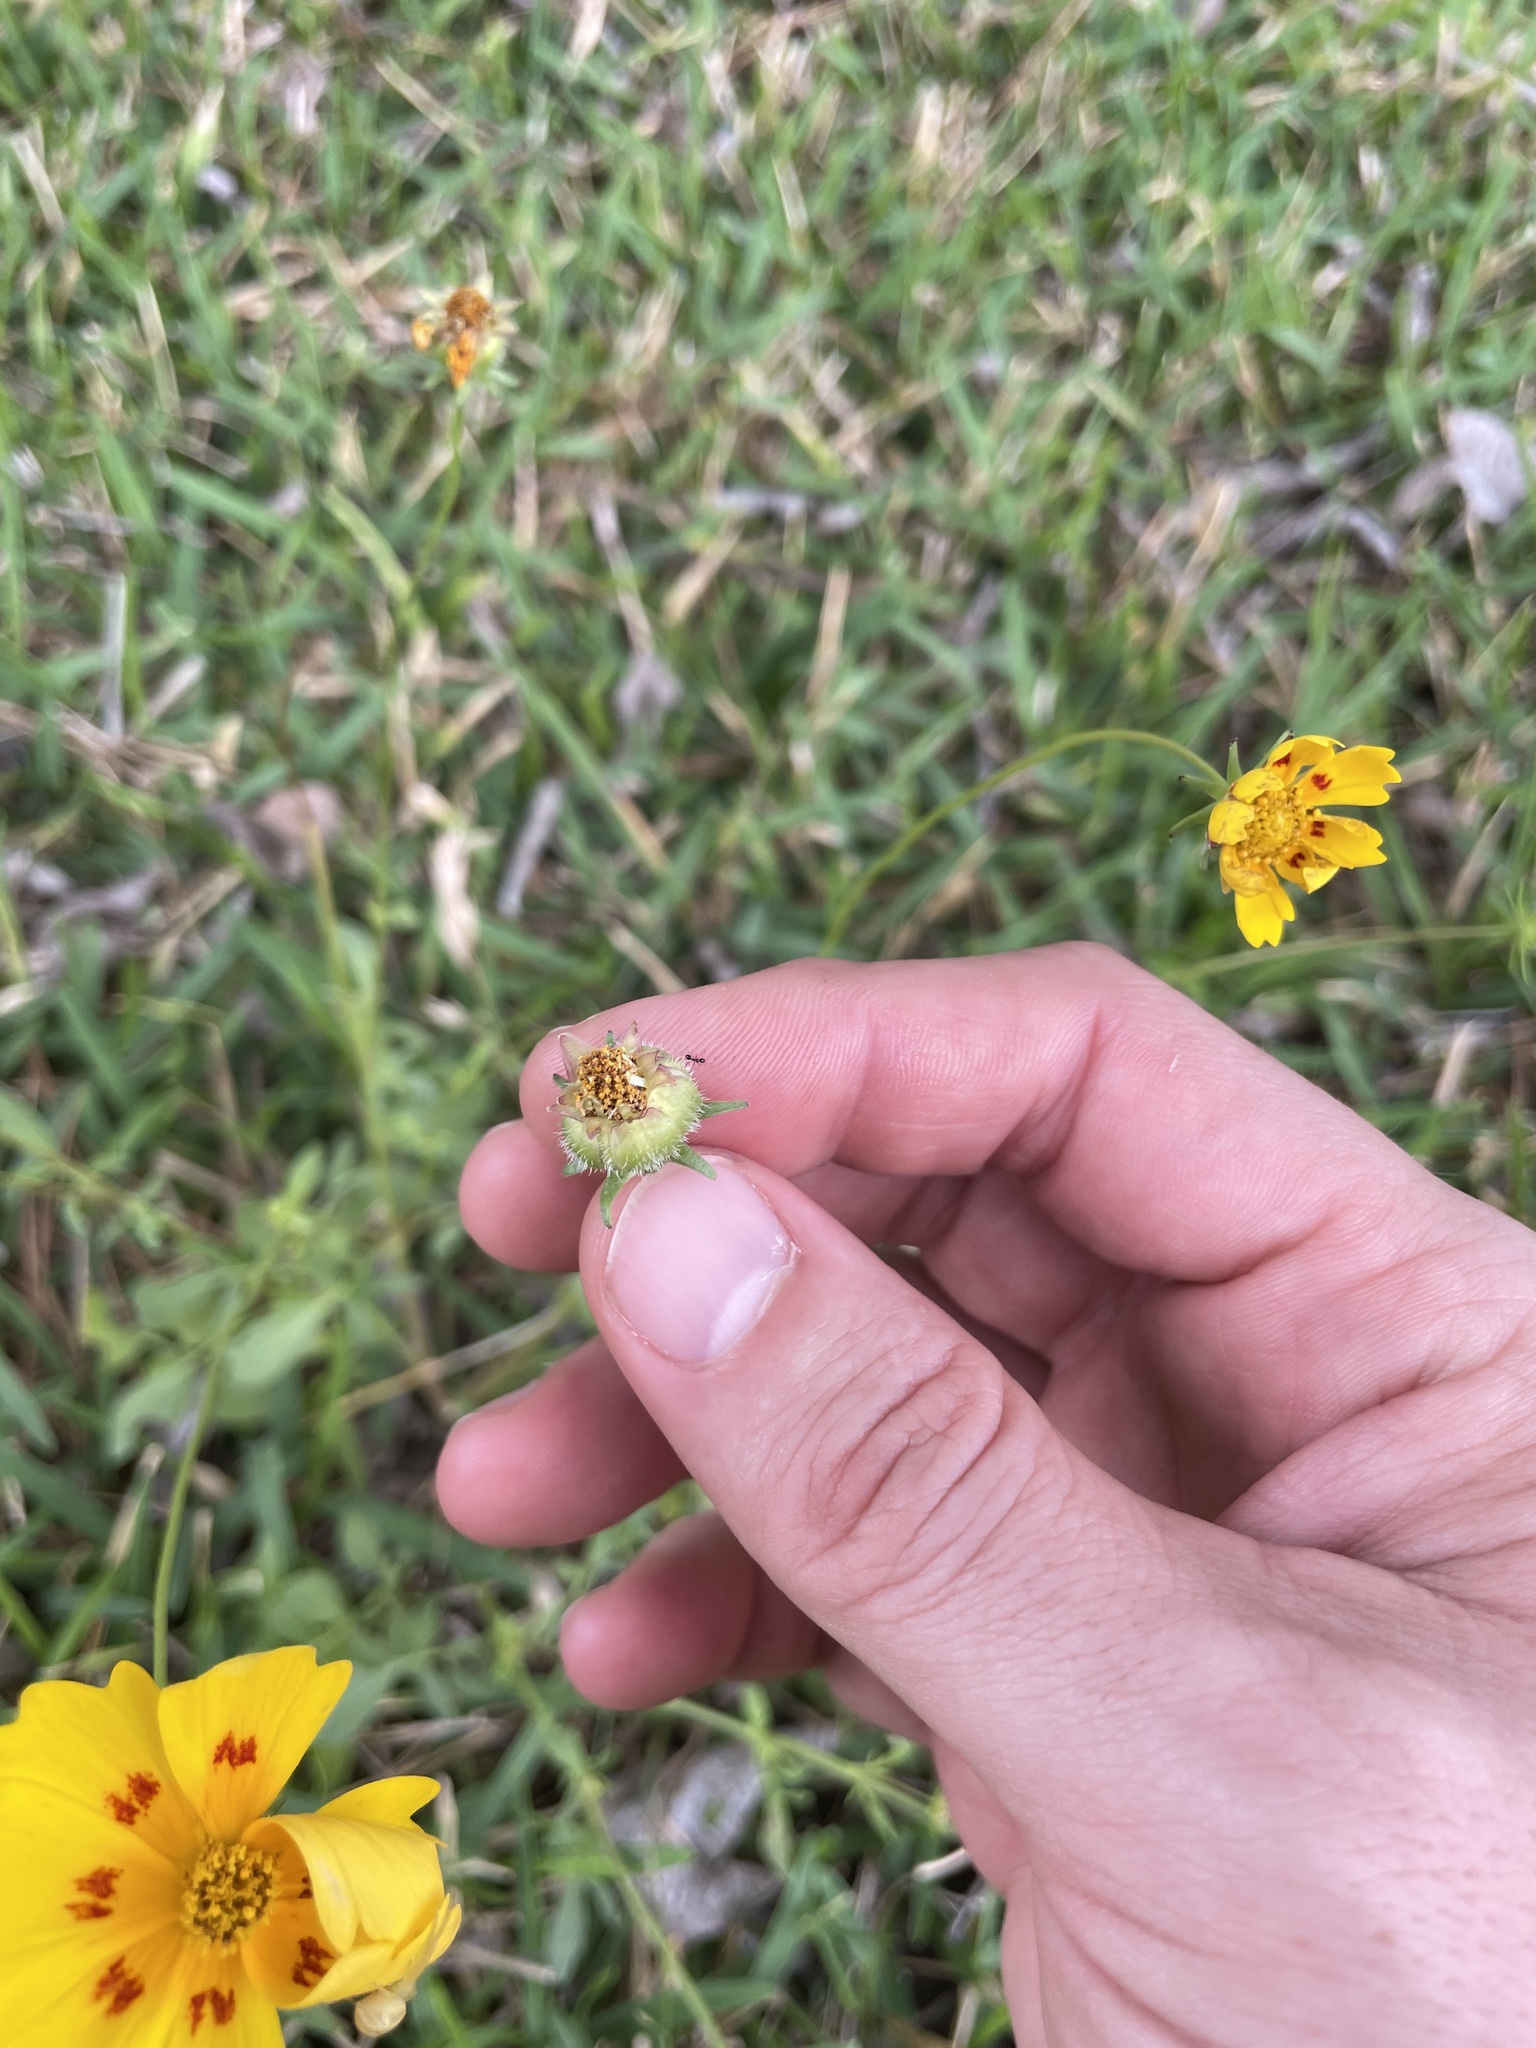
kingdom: Plantae
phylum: Tracheophyta
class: Magnoliopsida
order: Asterales
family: Asteraceae
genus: Coreopsis
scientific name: Coreopsis nuecensis
